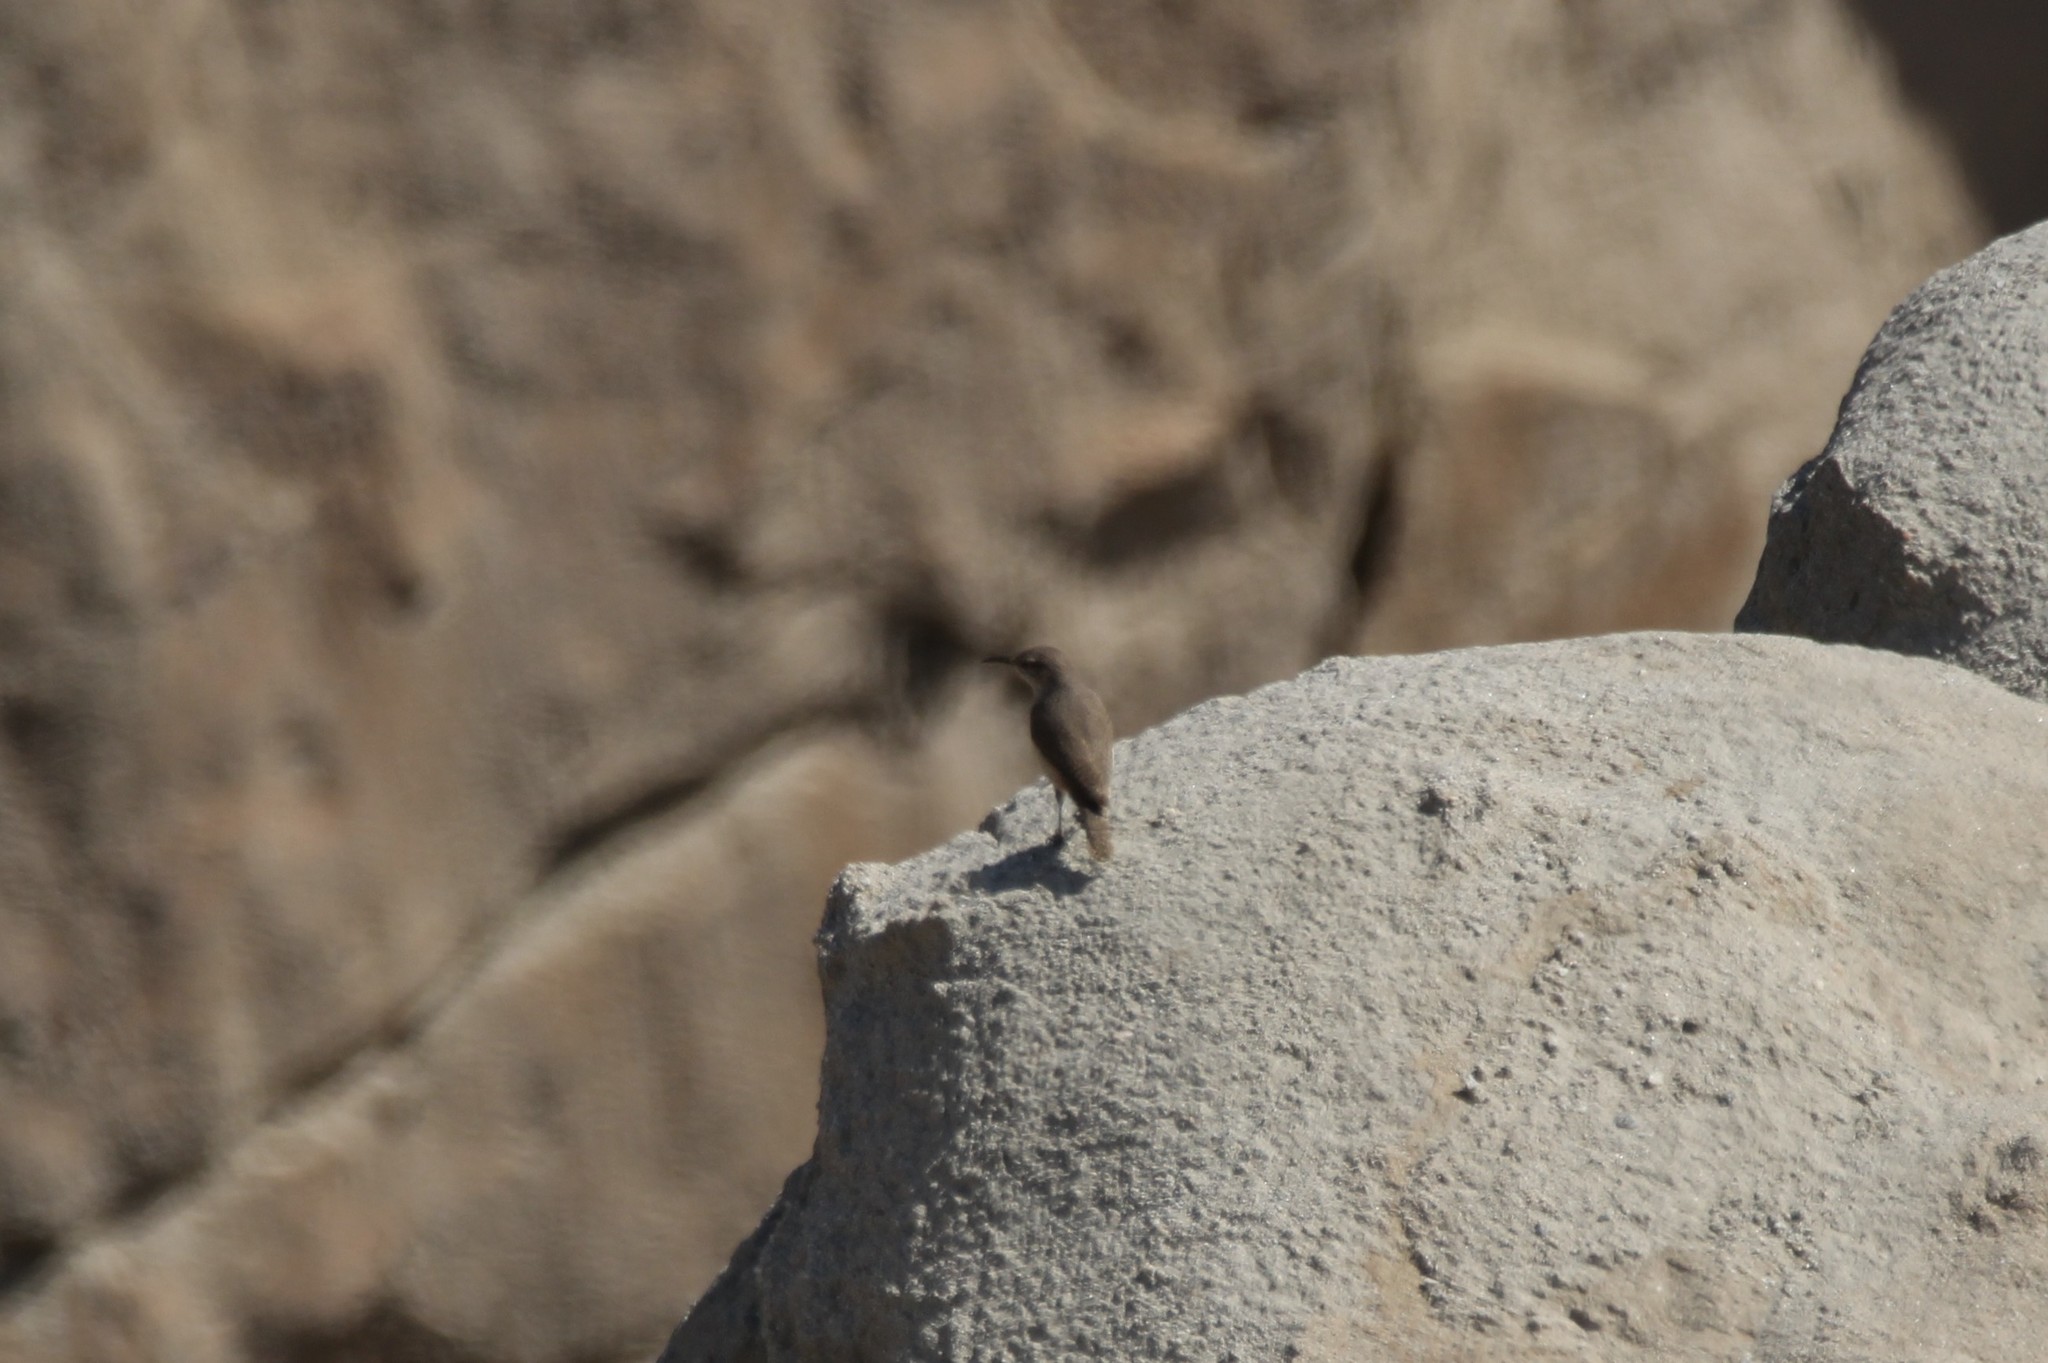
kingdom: Animalia
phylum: Chordata
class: Aves
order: Passeriformes
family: Troglodytidae
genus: Salpinctes
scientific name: Salpinctes obsoletus
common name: Rock wren
